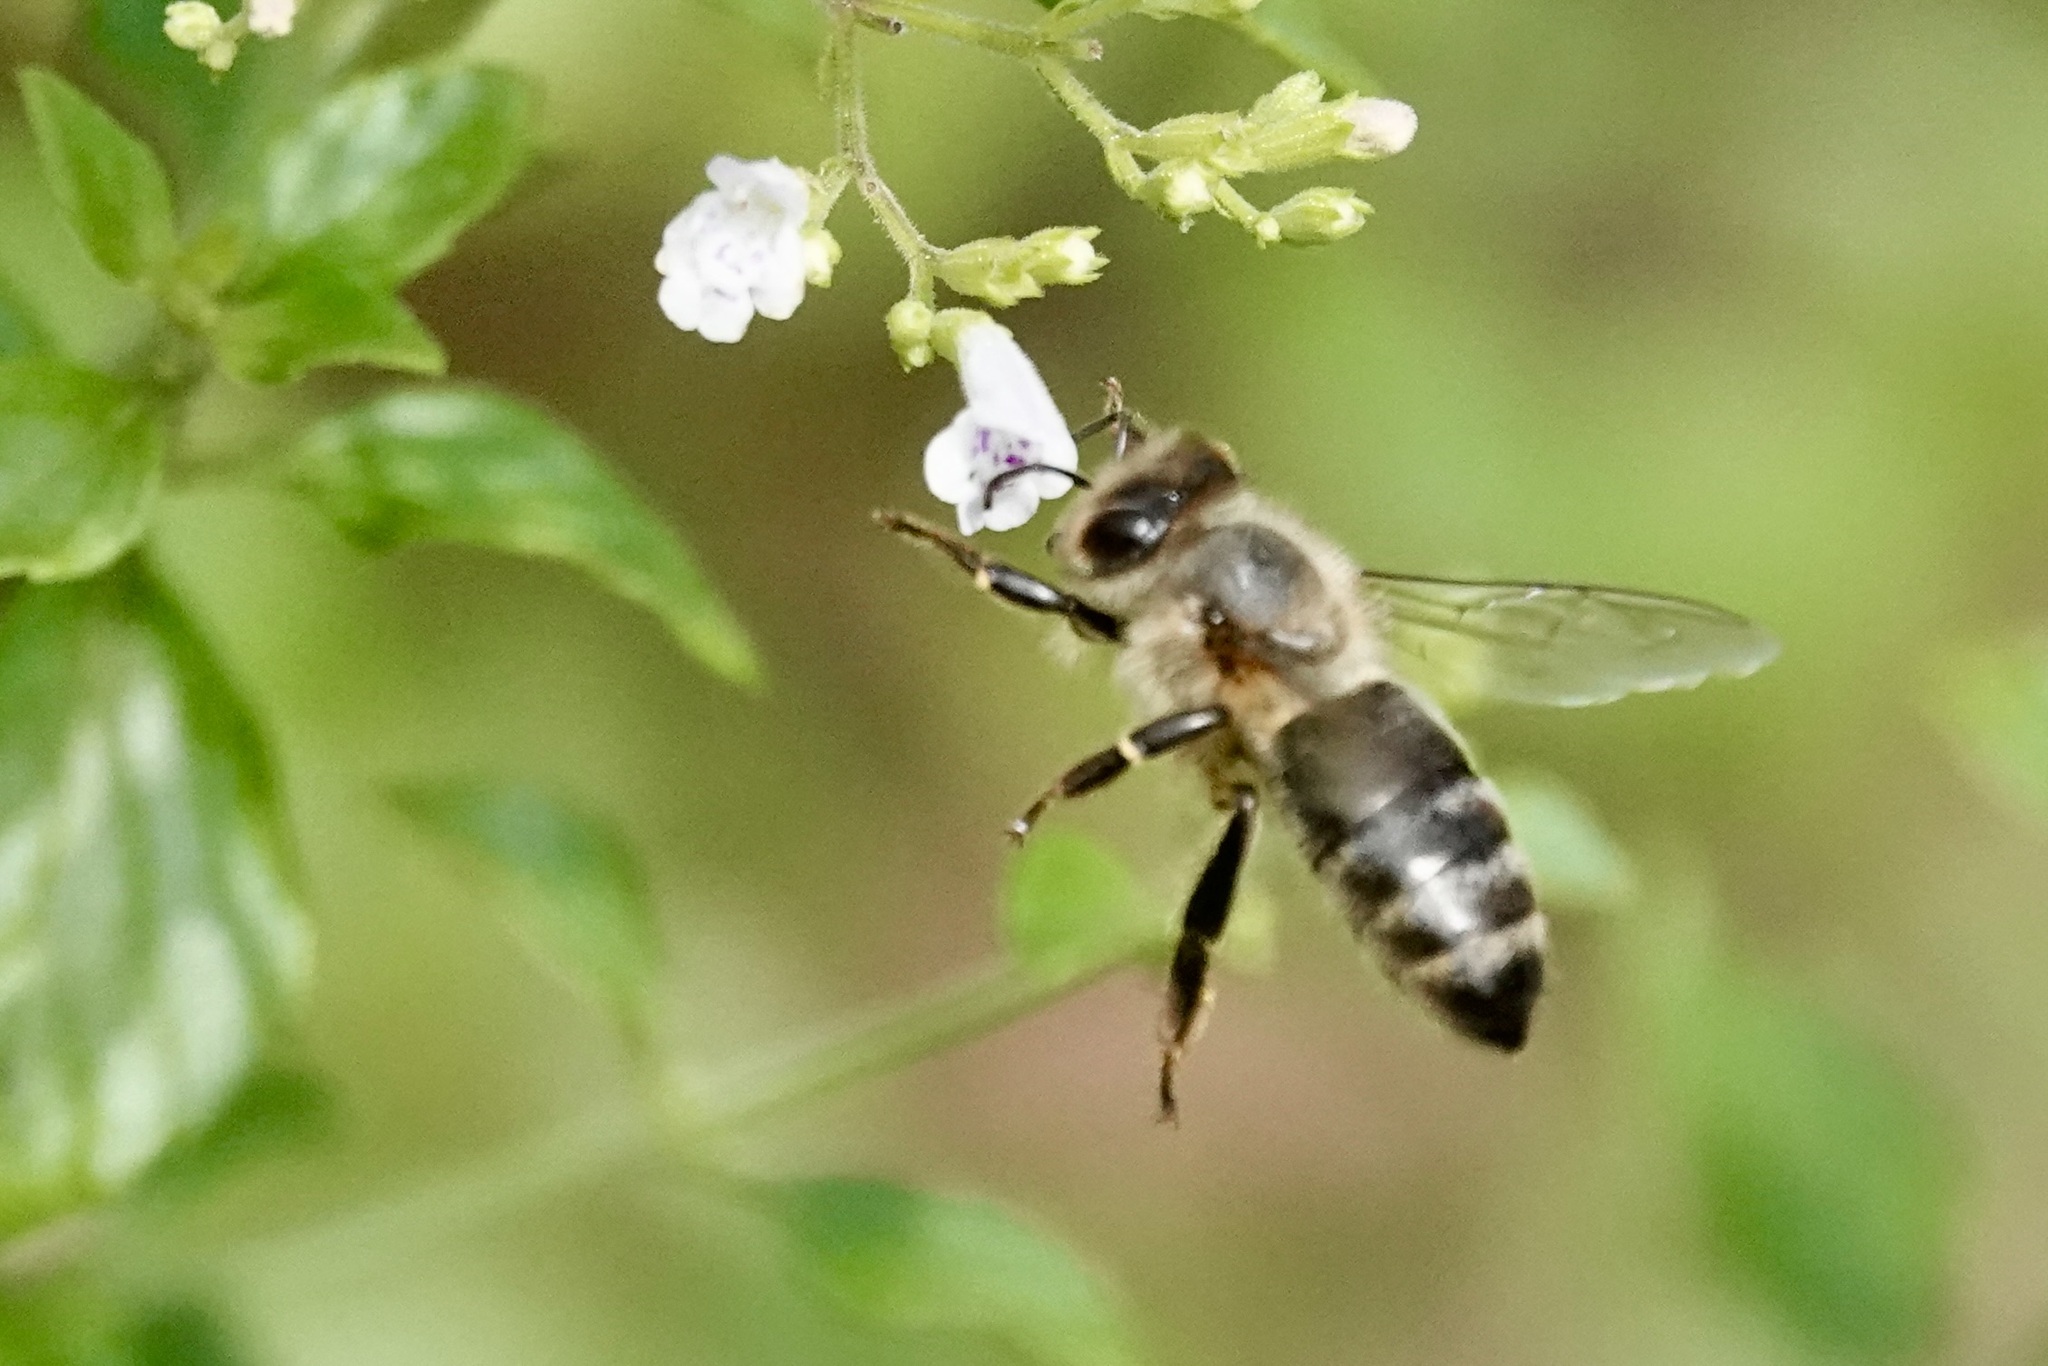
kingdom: Animalia
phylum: Arthropoda
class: Insecta
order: Hymenoptera
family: Apidae
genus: Apis
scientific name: Apis mellifera
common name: Honey bee
